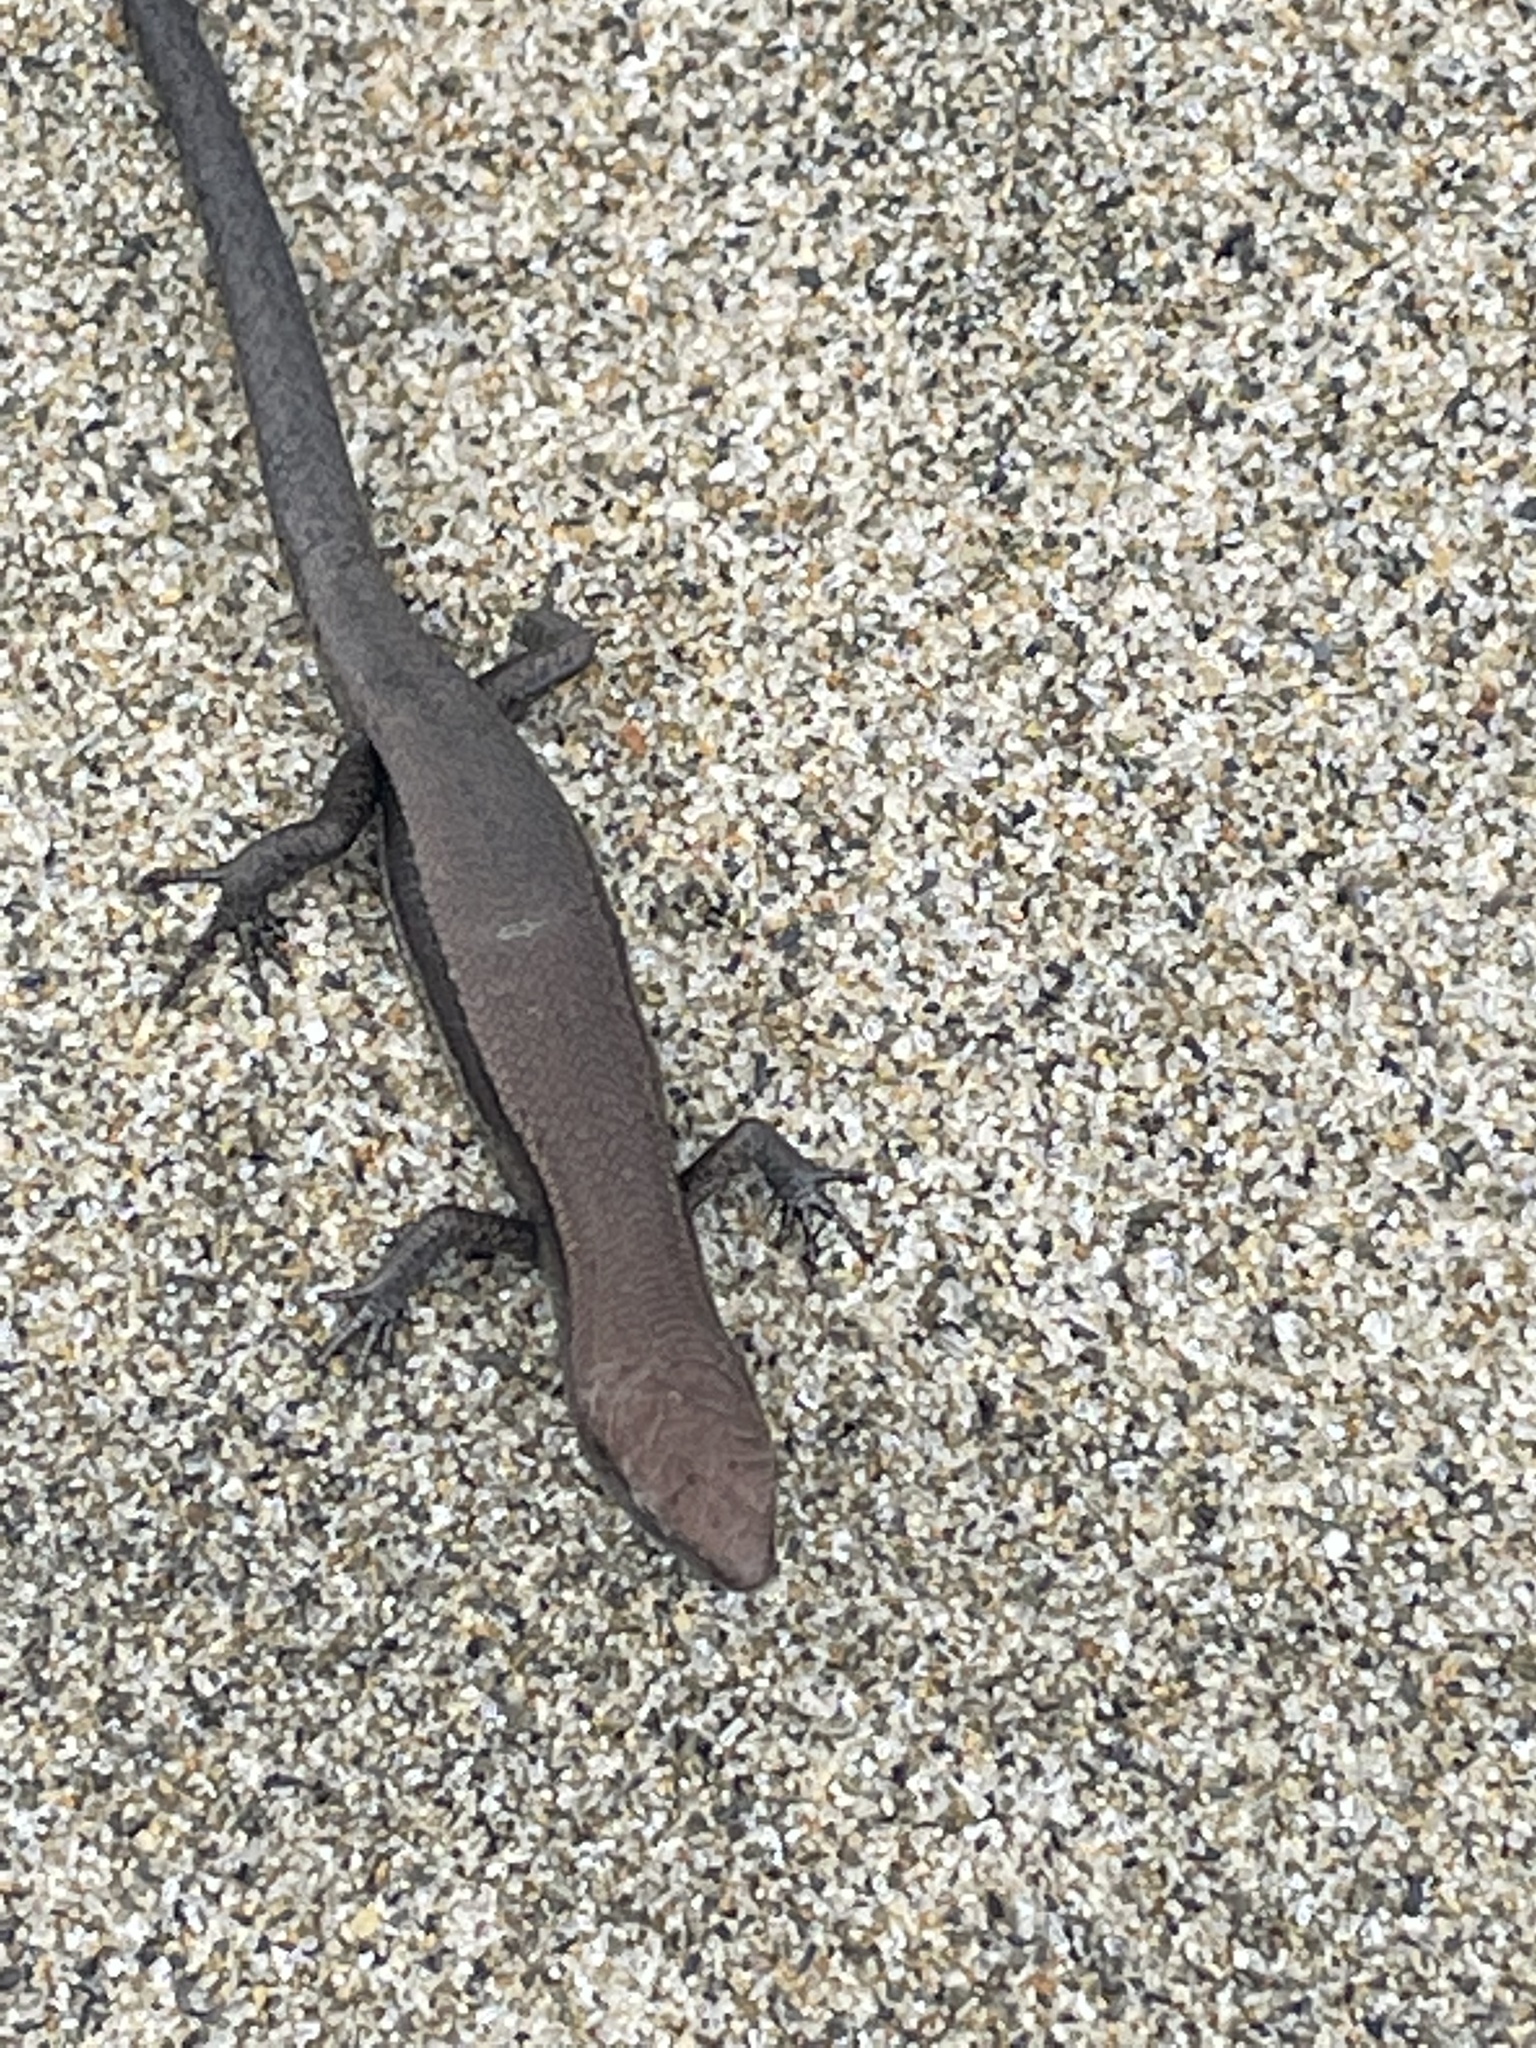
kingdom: Animalia
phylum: Chordata
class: Squamata
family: Scincidae
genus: Lampropholis
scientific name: Lampropholis delicata
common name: Plague skink
